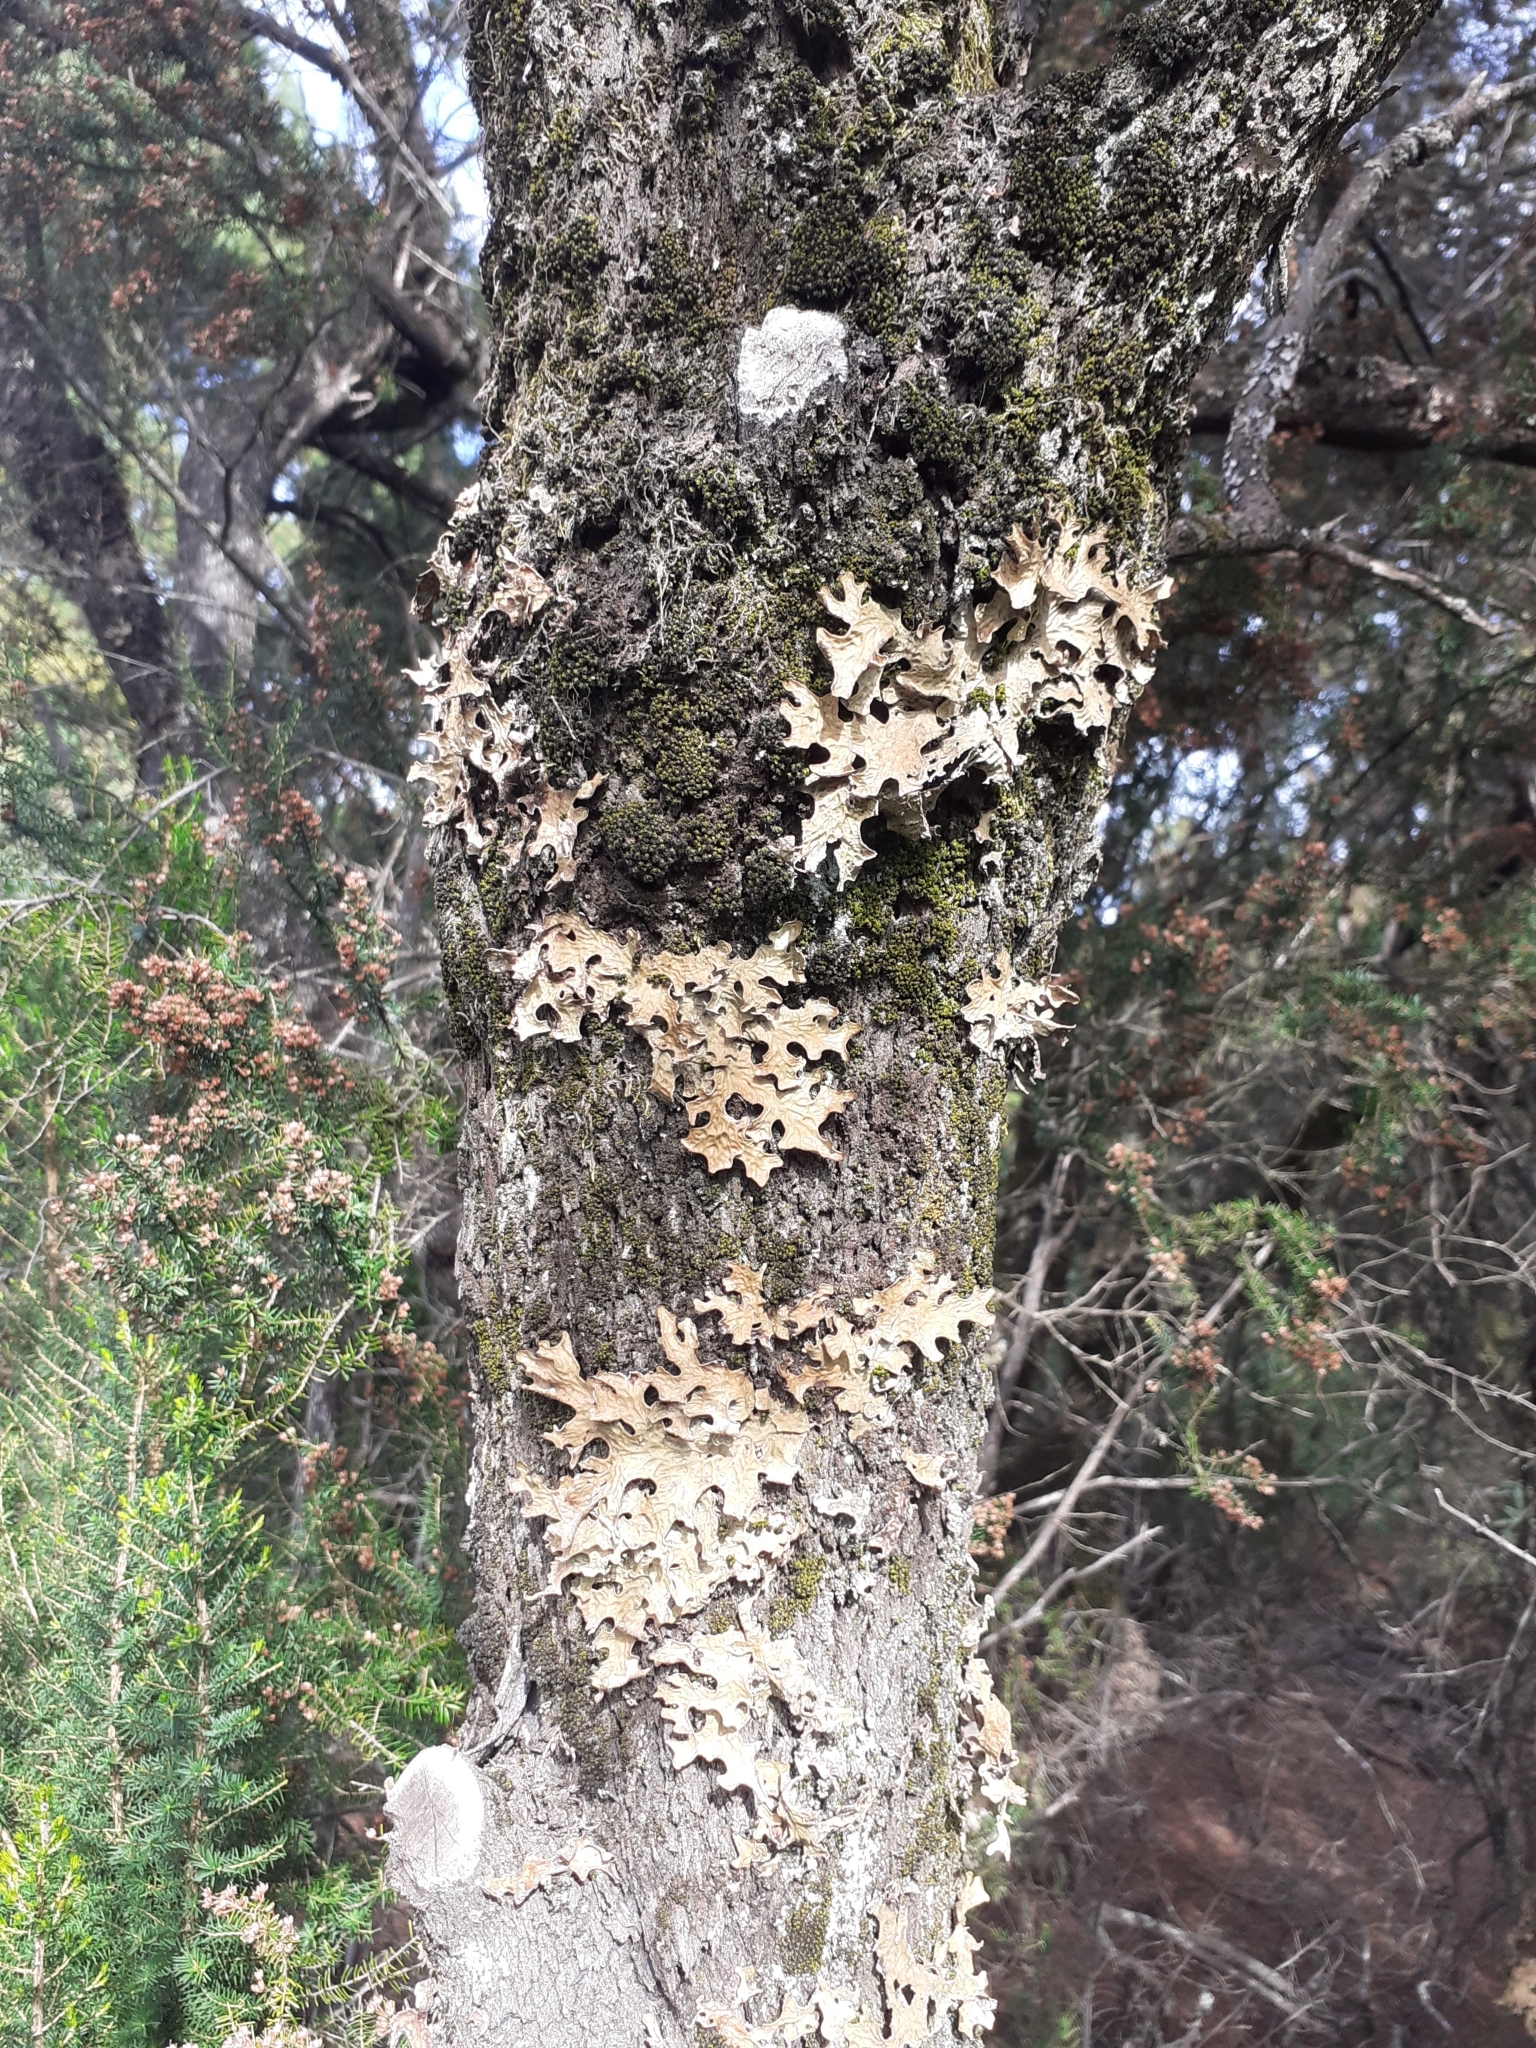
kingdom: Fungi
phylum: Ascomycota
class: Lecanoromycetes
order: Peltigerales
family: Lobariaceae
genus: Lobaria
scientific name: Lobaria pulmonaria
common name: Lungwort
